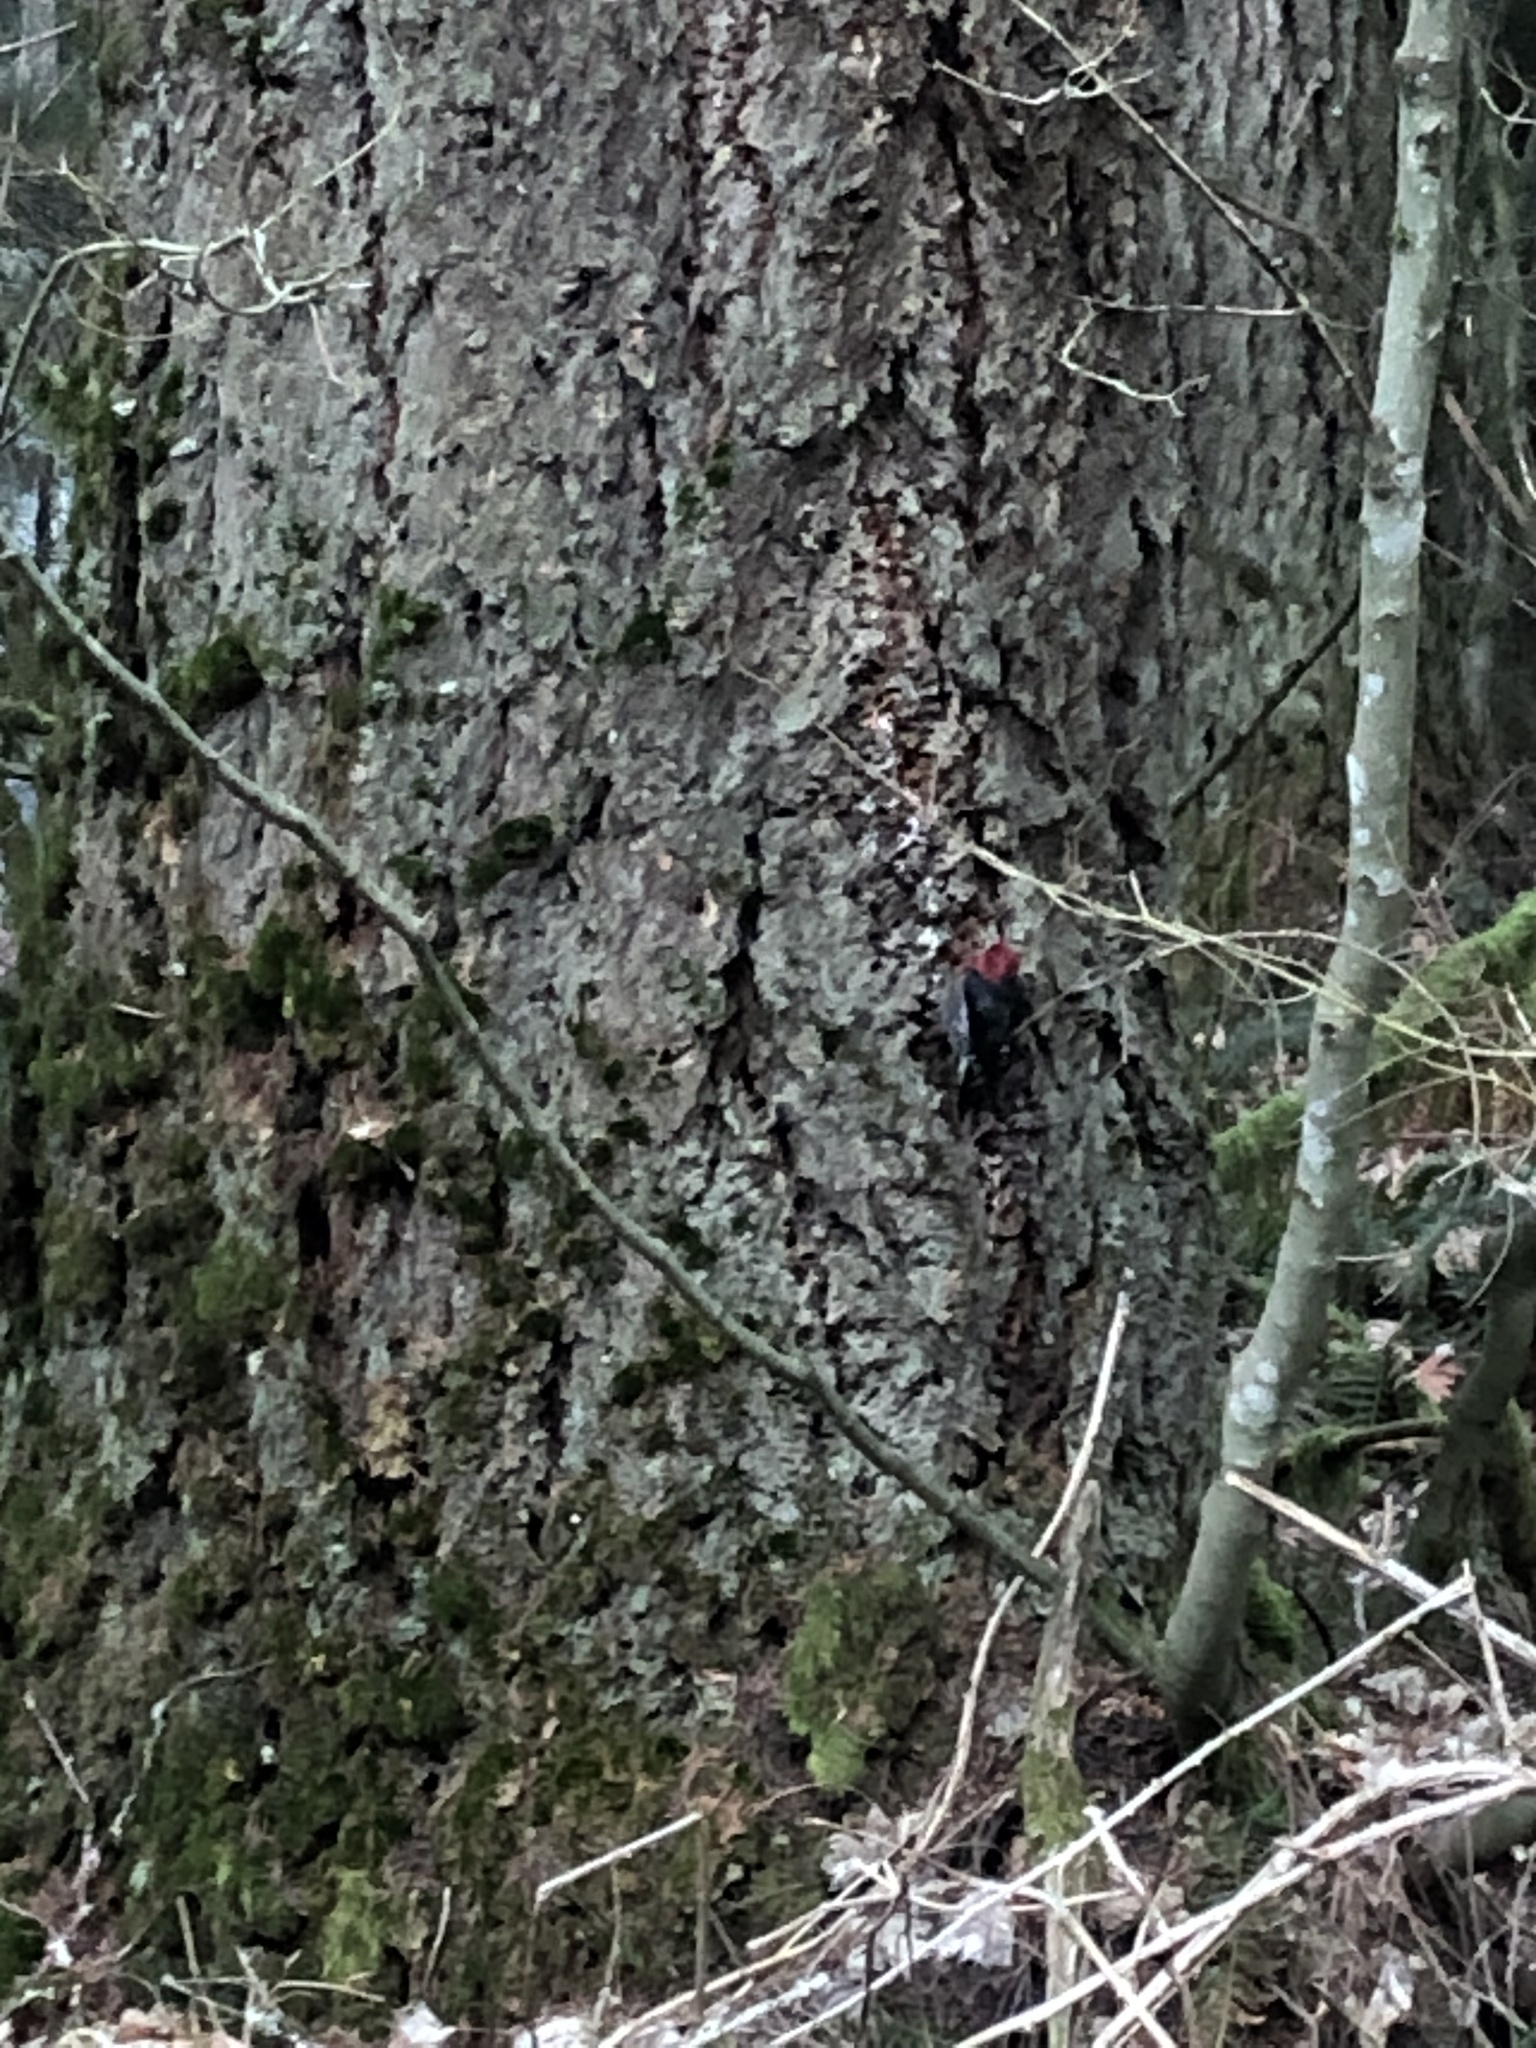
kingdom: Animalia
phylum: Chordata
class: Aves
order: Piciformes
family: Picidae
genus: Sphyrapicus
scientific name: Sphyrapicus ruber
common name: Red-breasted sapsucker
